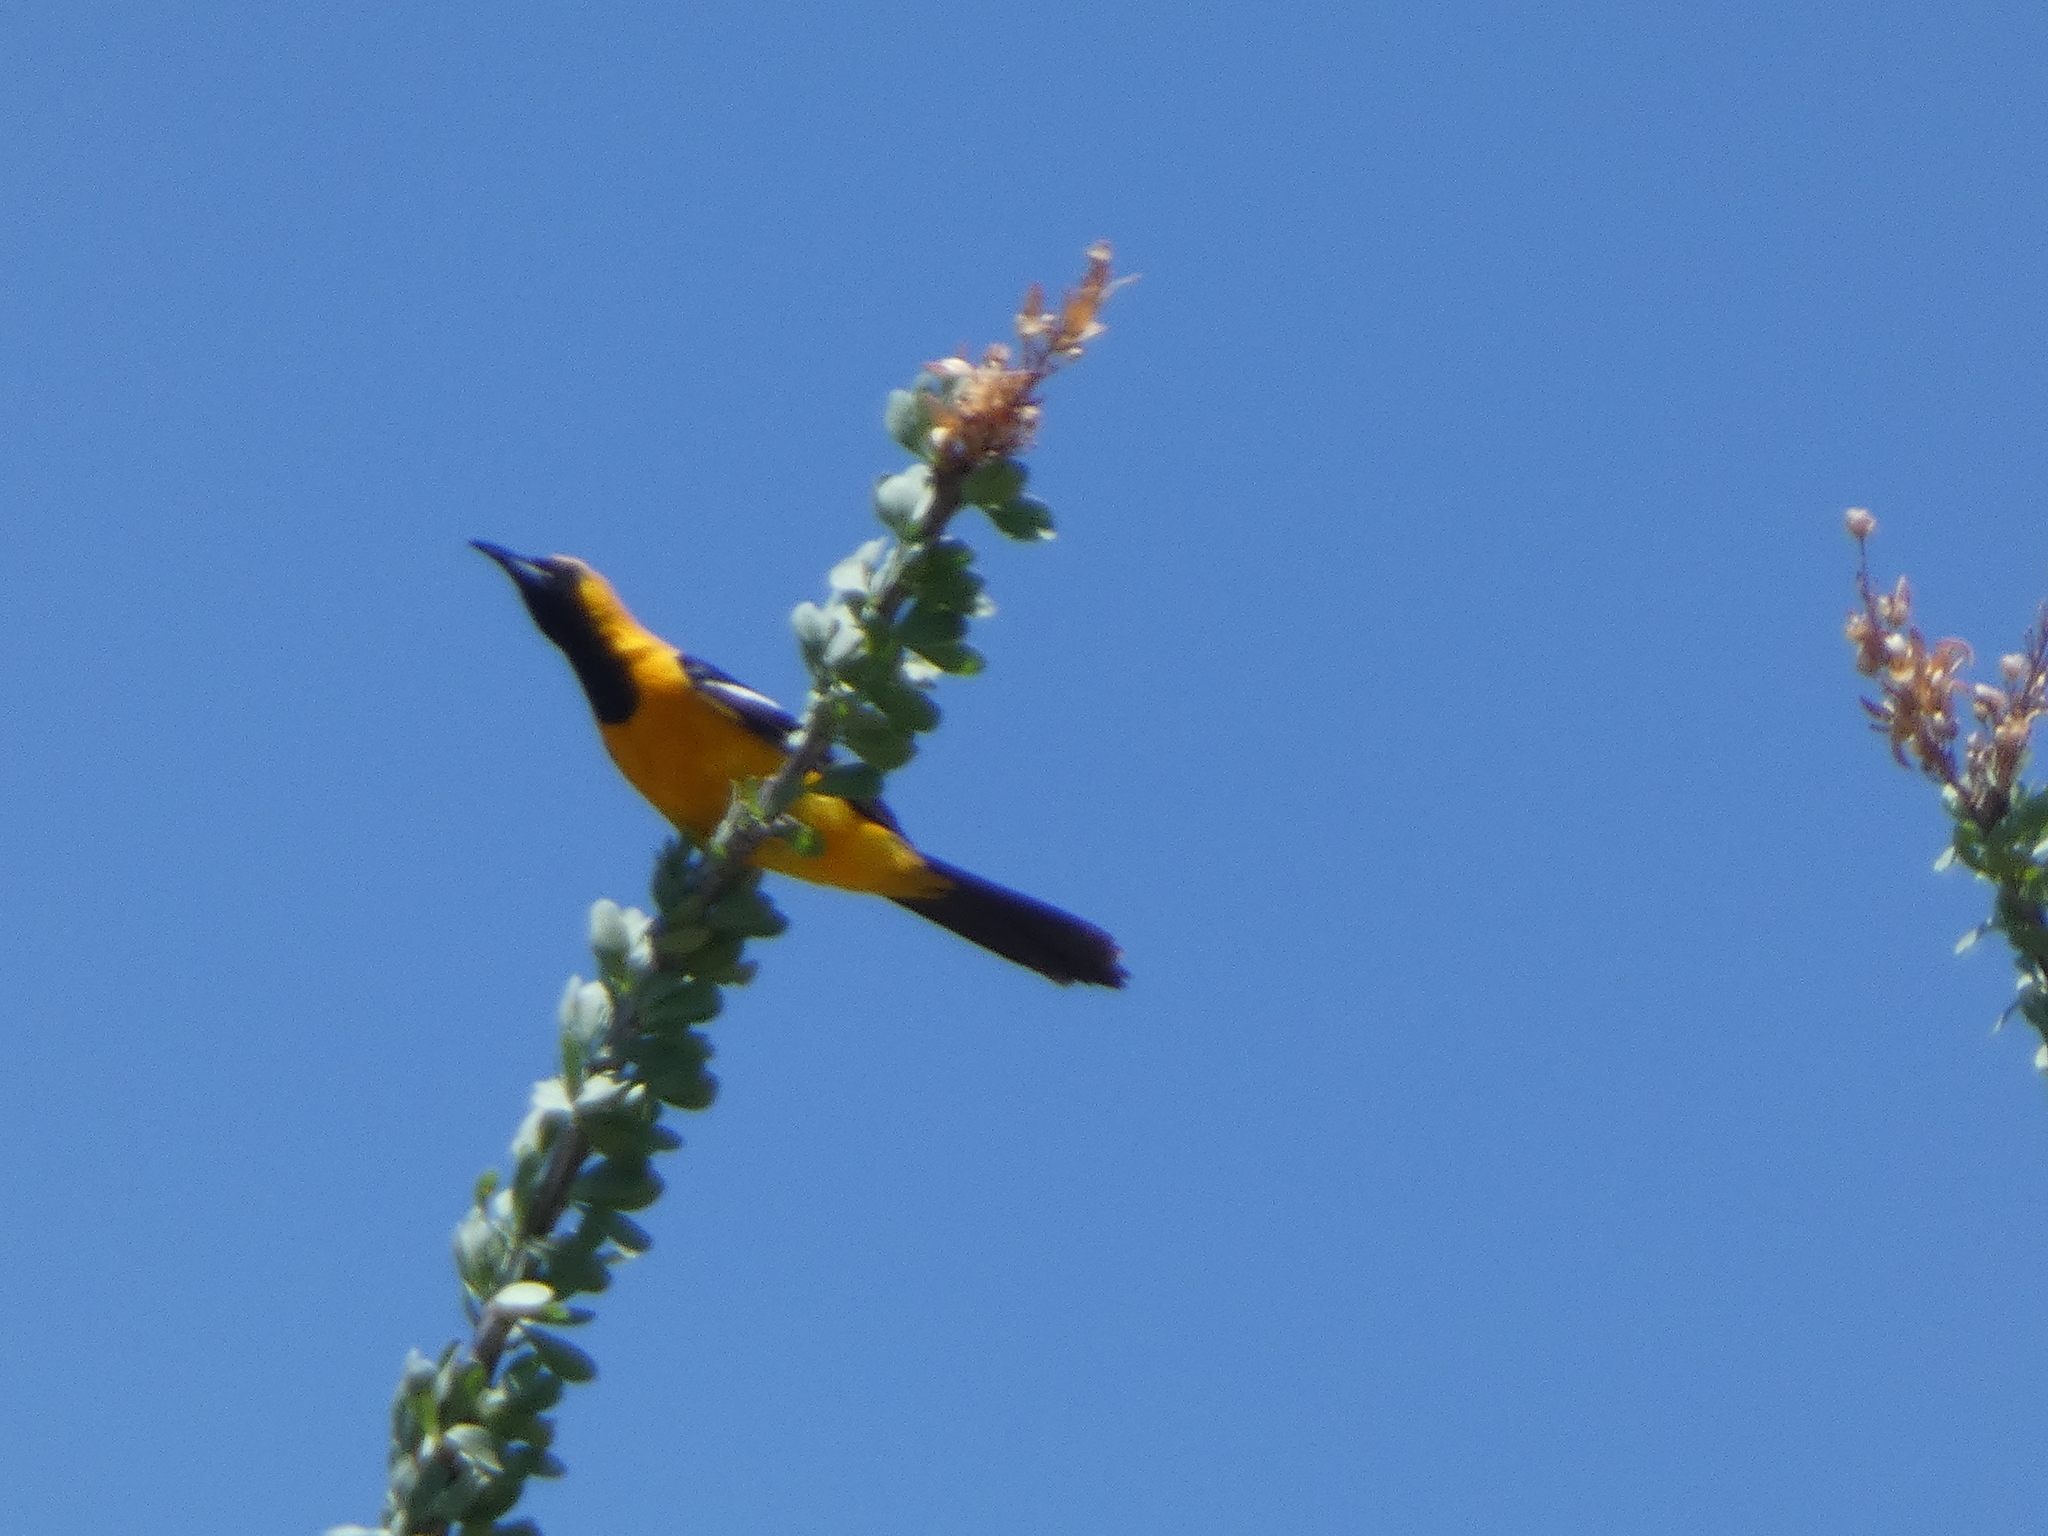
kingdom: Animalia
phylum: Chordata
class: Aves
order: Passeriformes
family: Icteridae
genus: Icterus
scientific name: Icterus cucullatus
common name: Hooded oriole
